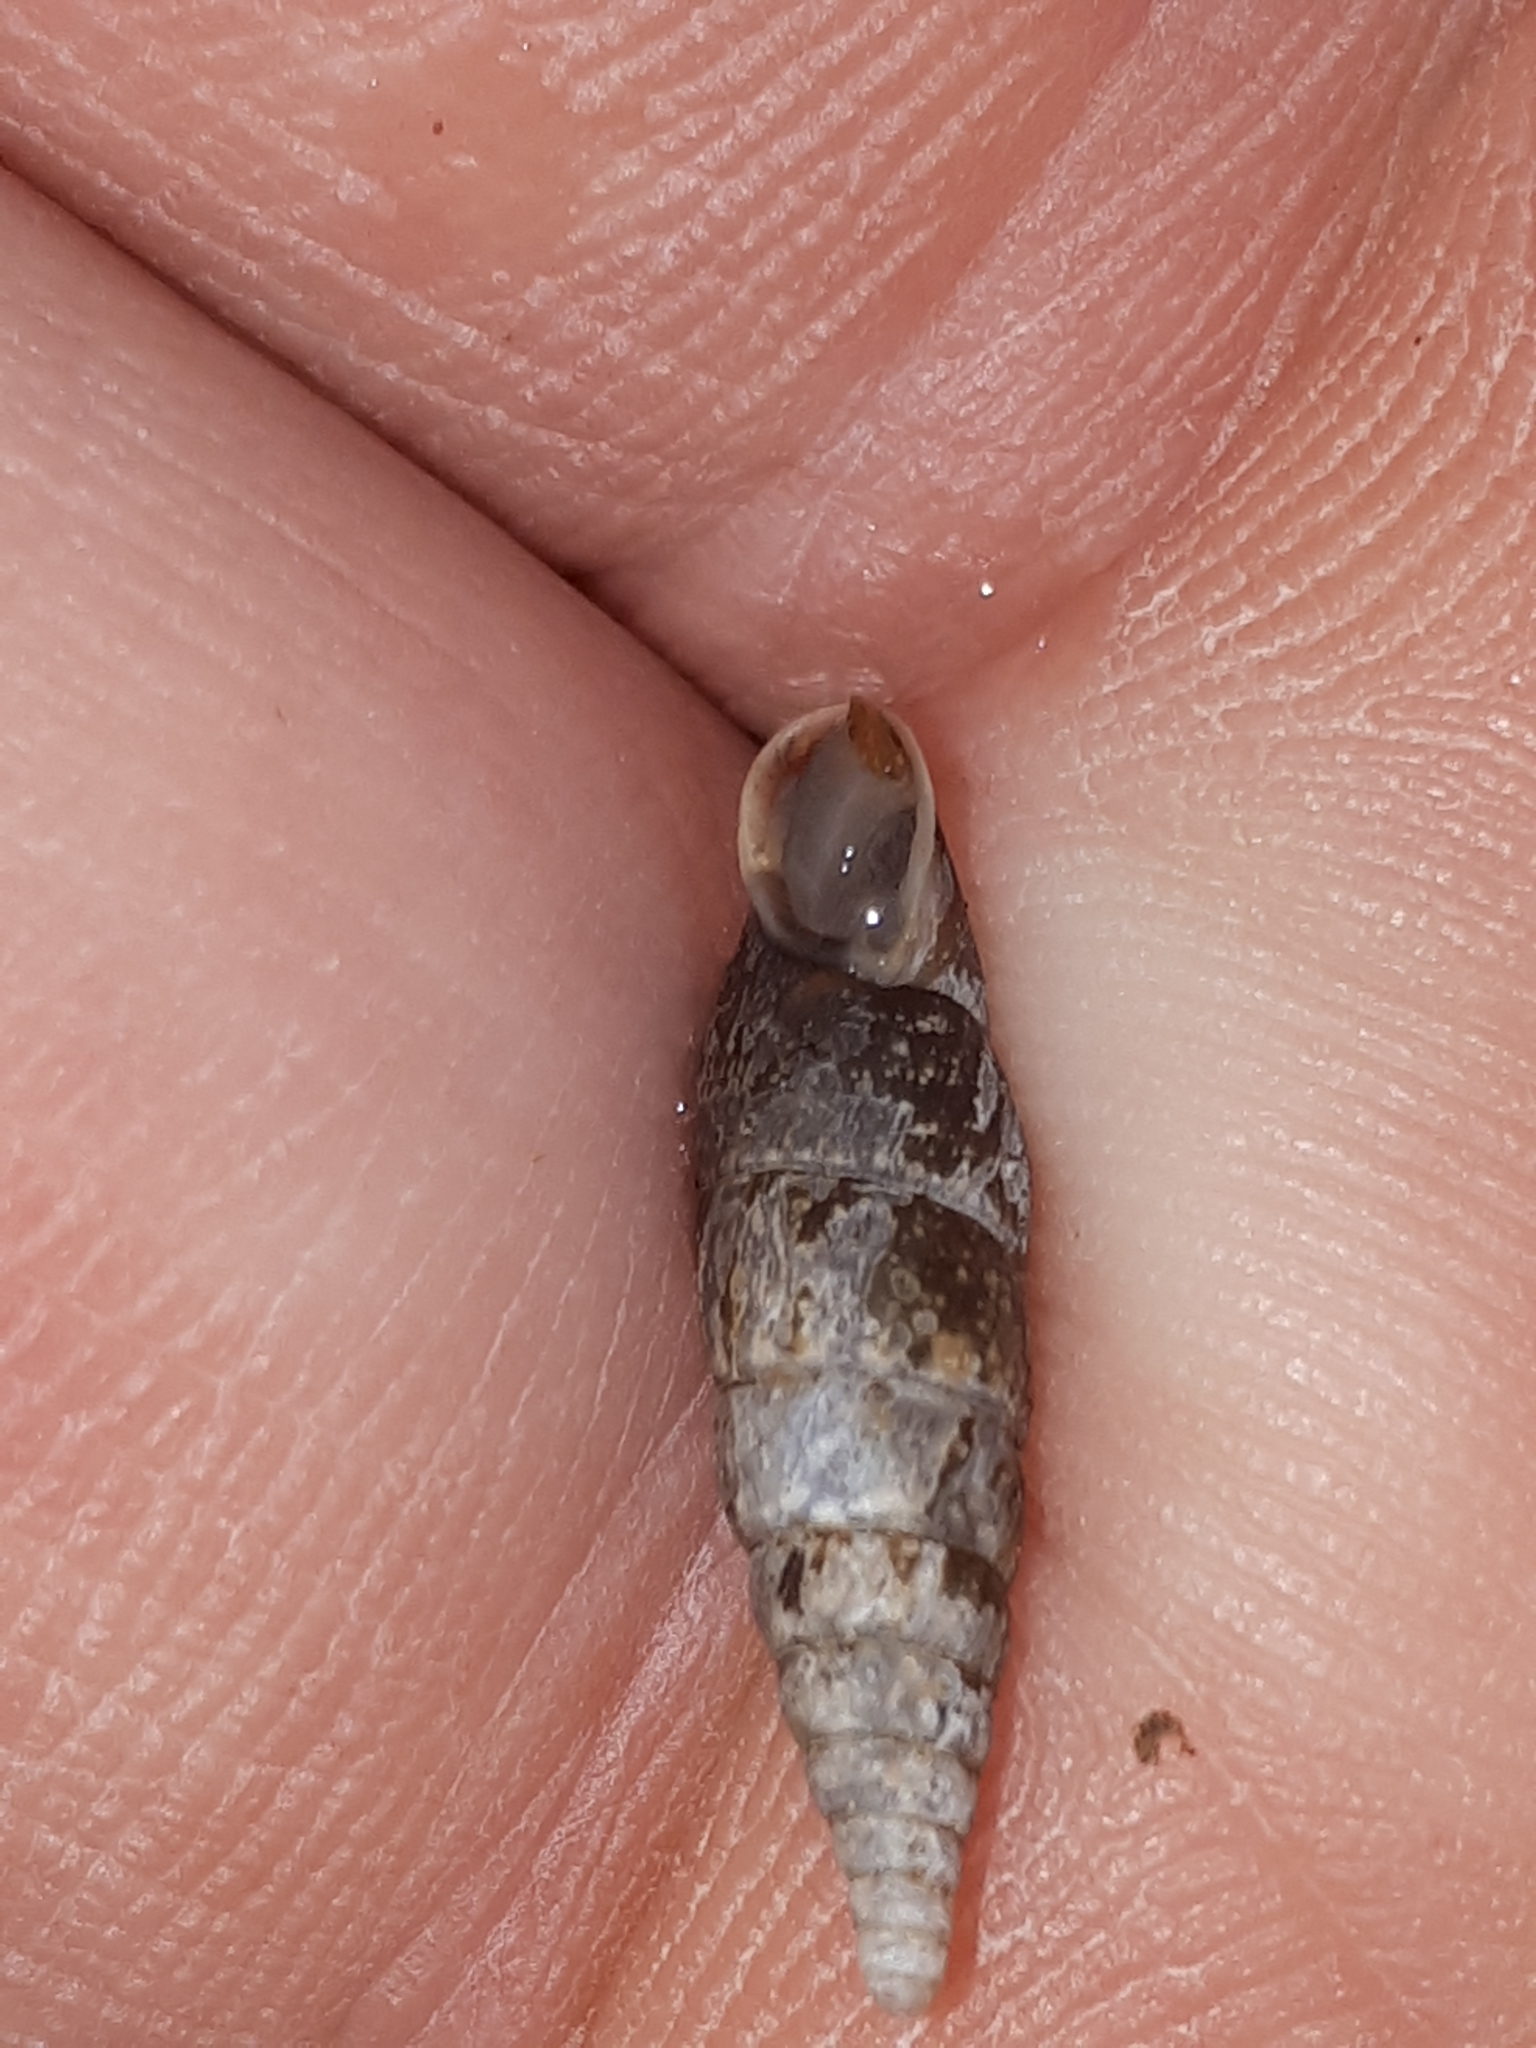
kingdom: Animalia
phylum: Mollusca
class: Gastropoda
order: Stylommatophora
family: Clausiliidae
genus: Cochlodina
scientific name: Cochlodina laminata
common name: Plaited door snail
